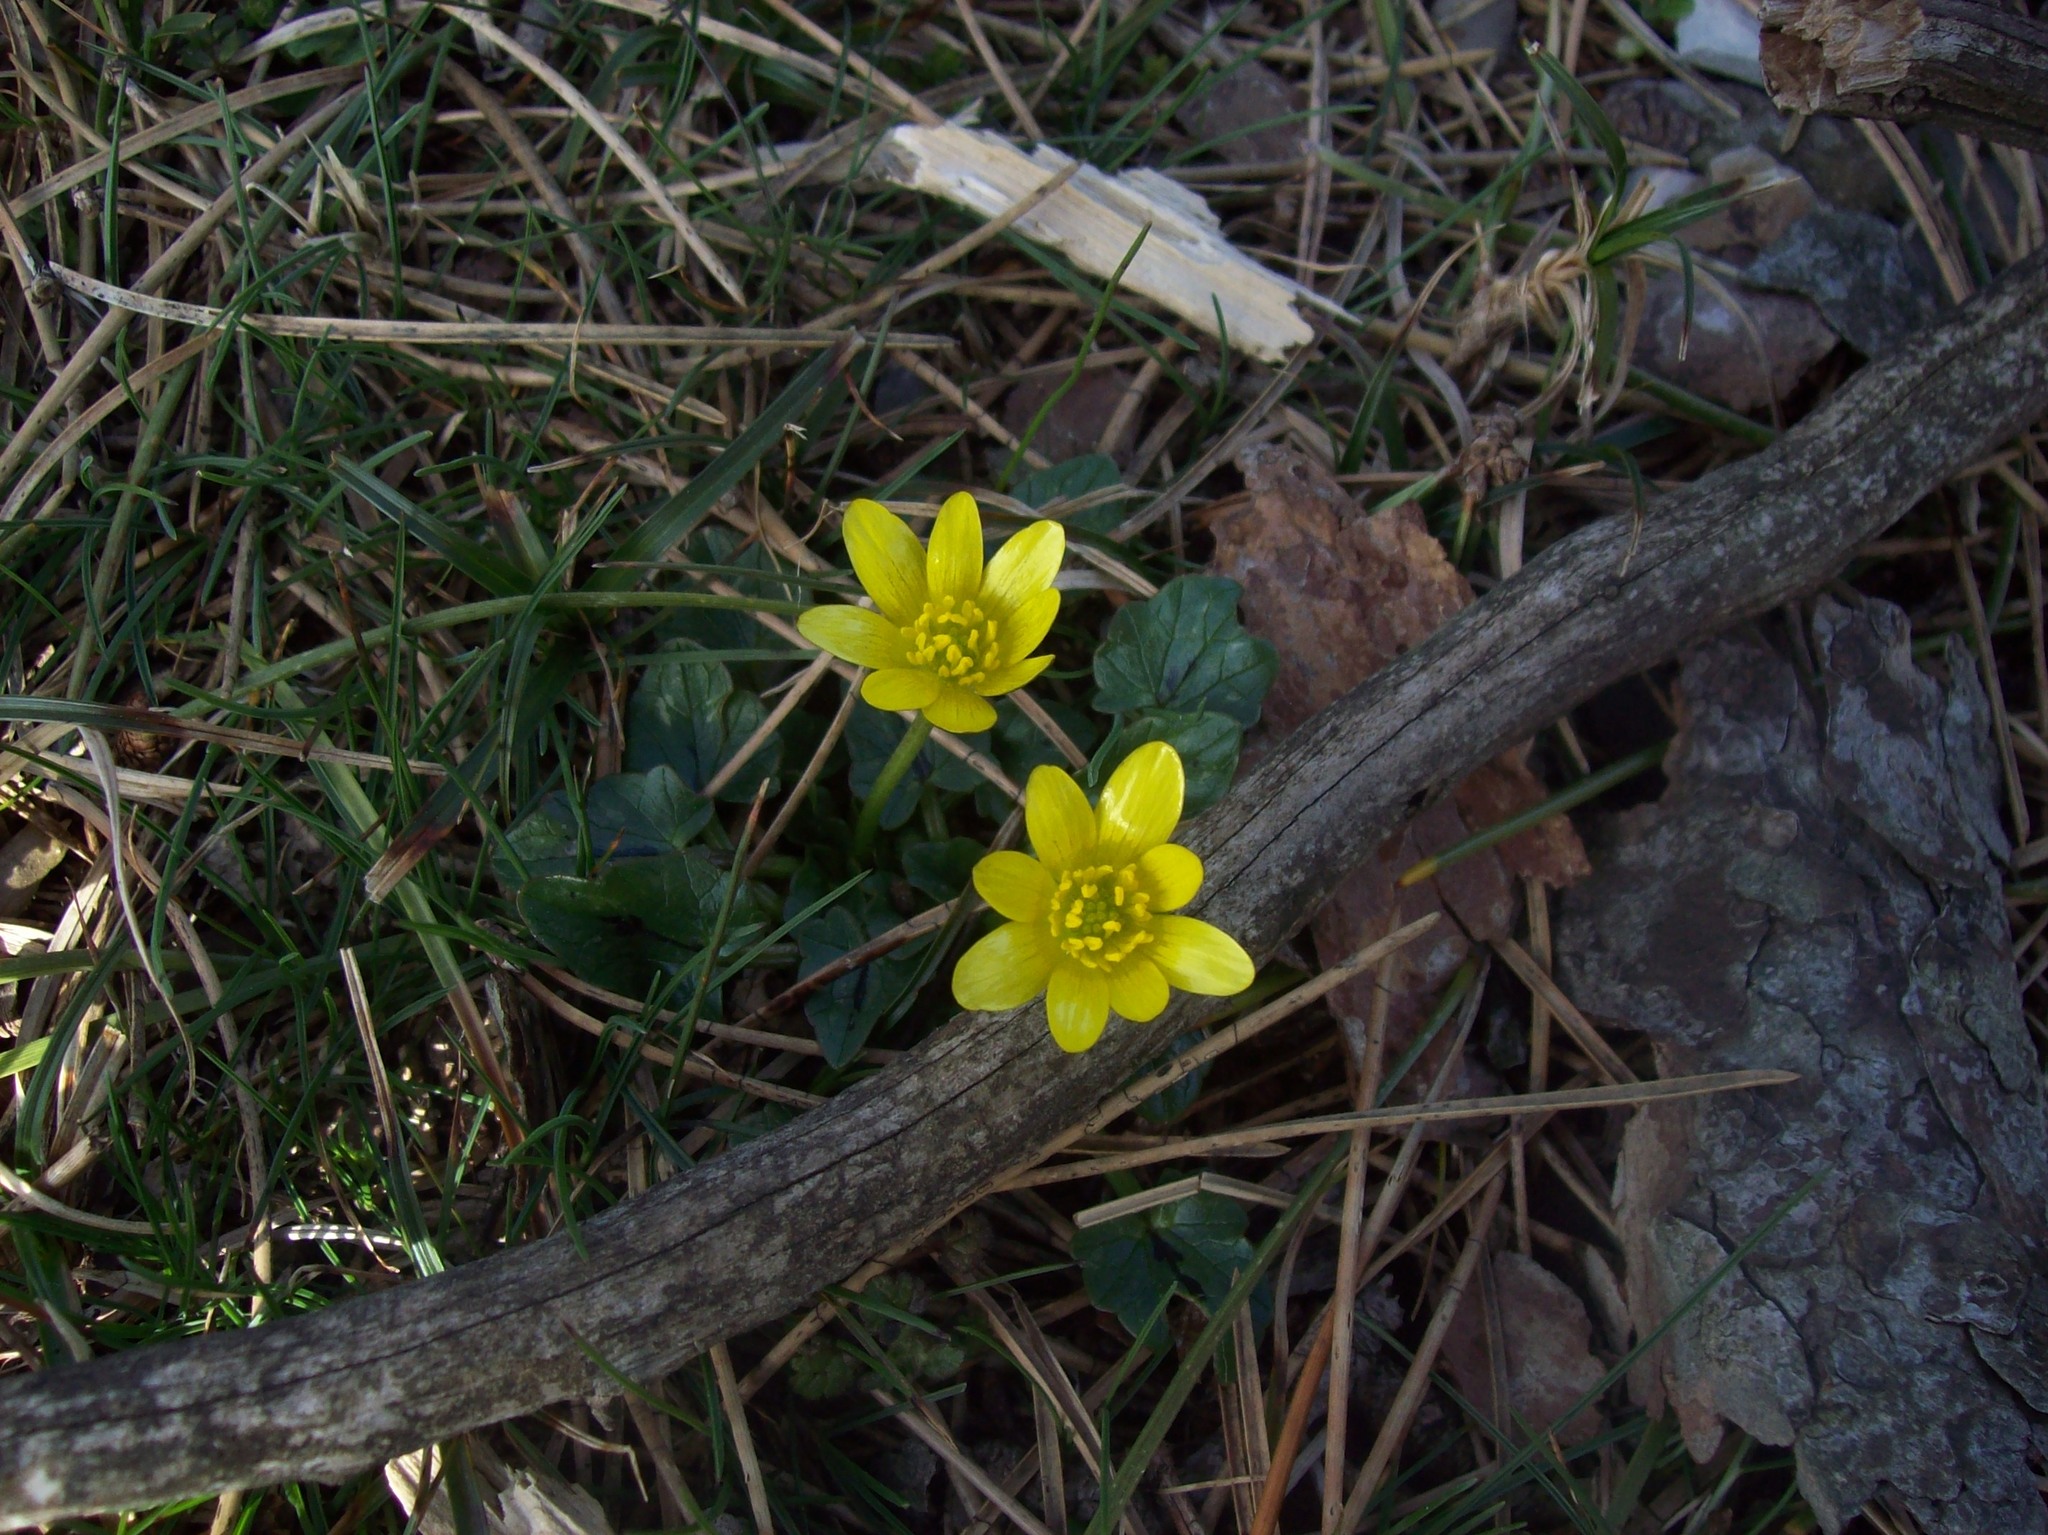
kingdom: Plantae
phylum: Tracheophyta
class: Magnoliopsida
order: Ranunculales
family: Ranunculaceae
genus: Ficaria
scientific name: Ficaria verna
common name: Lesser celandine
